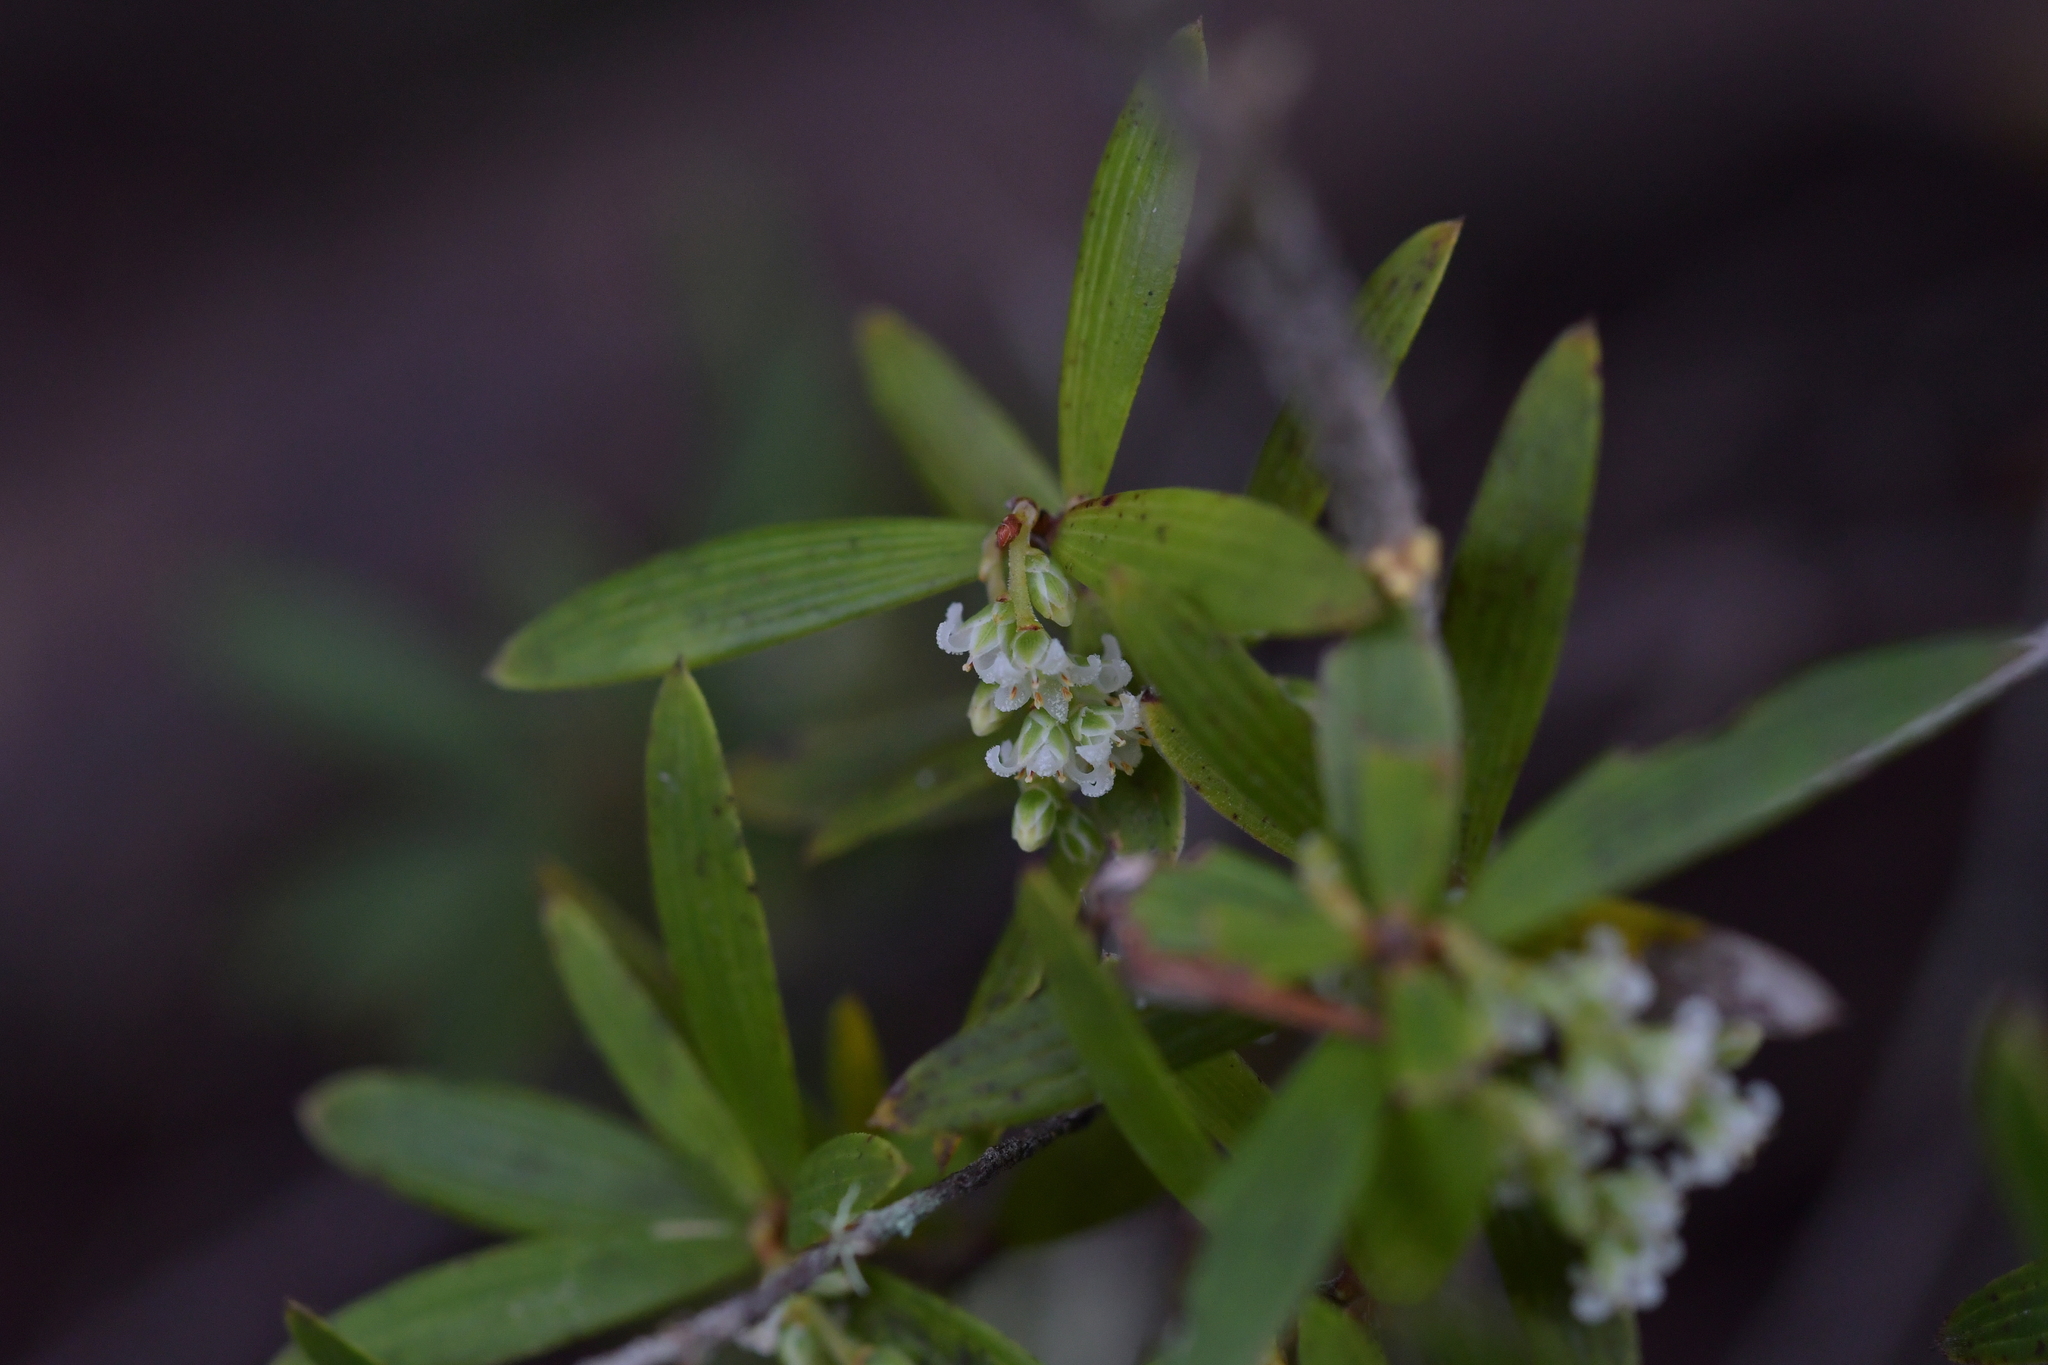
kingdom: Plantae
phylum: Tracheophyta
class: Magnoliopsida
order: Ericales
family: Ericaceae
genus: Leucopogon
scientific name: Leucopogon fasciculatus
